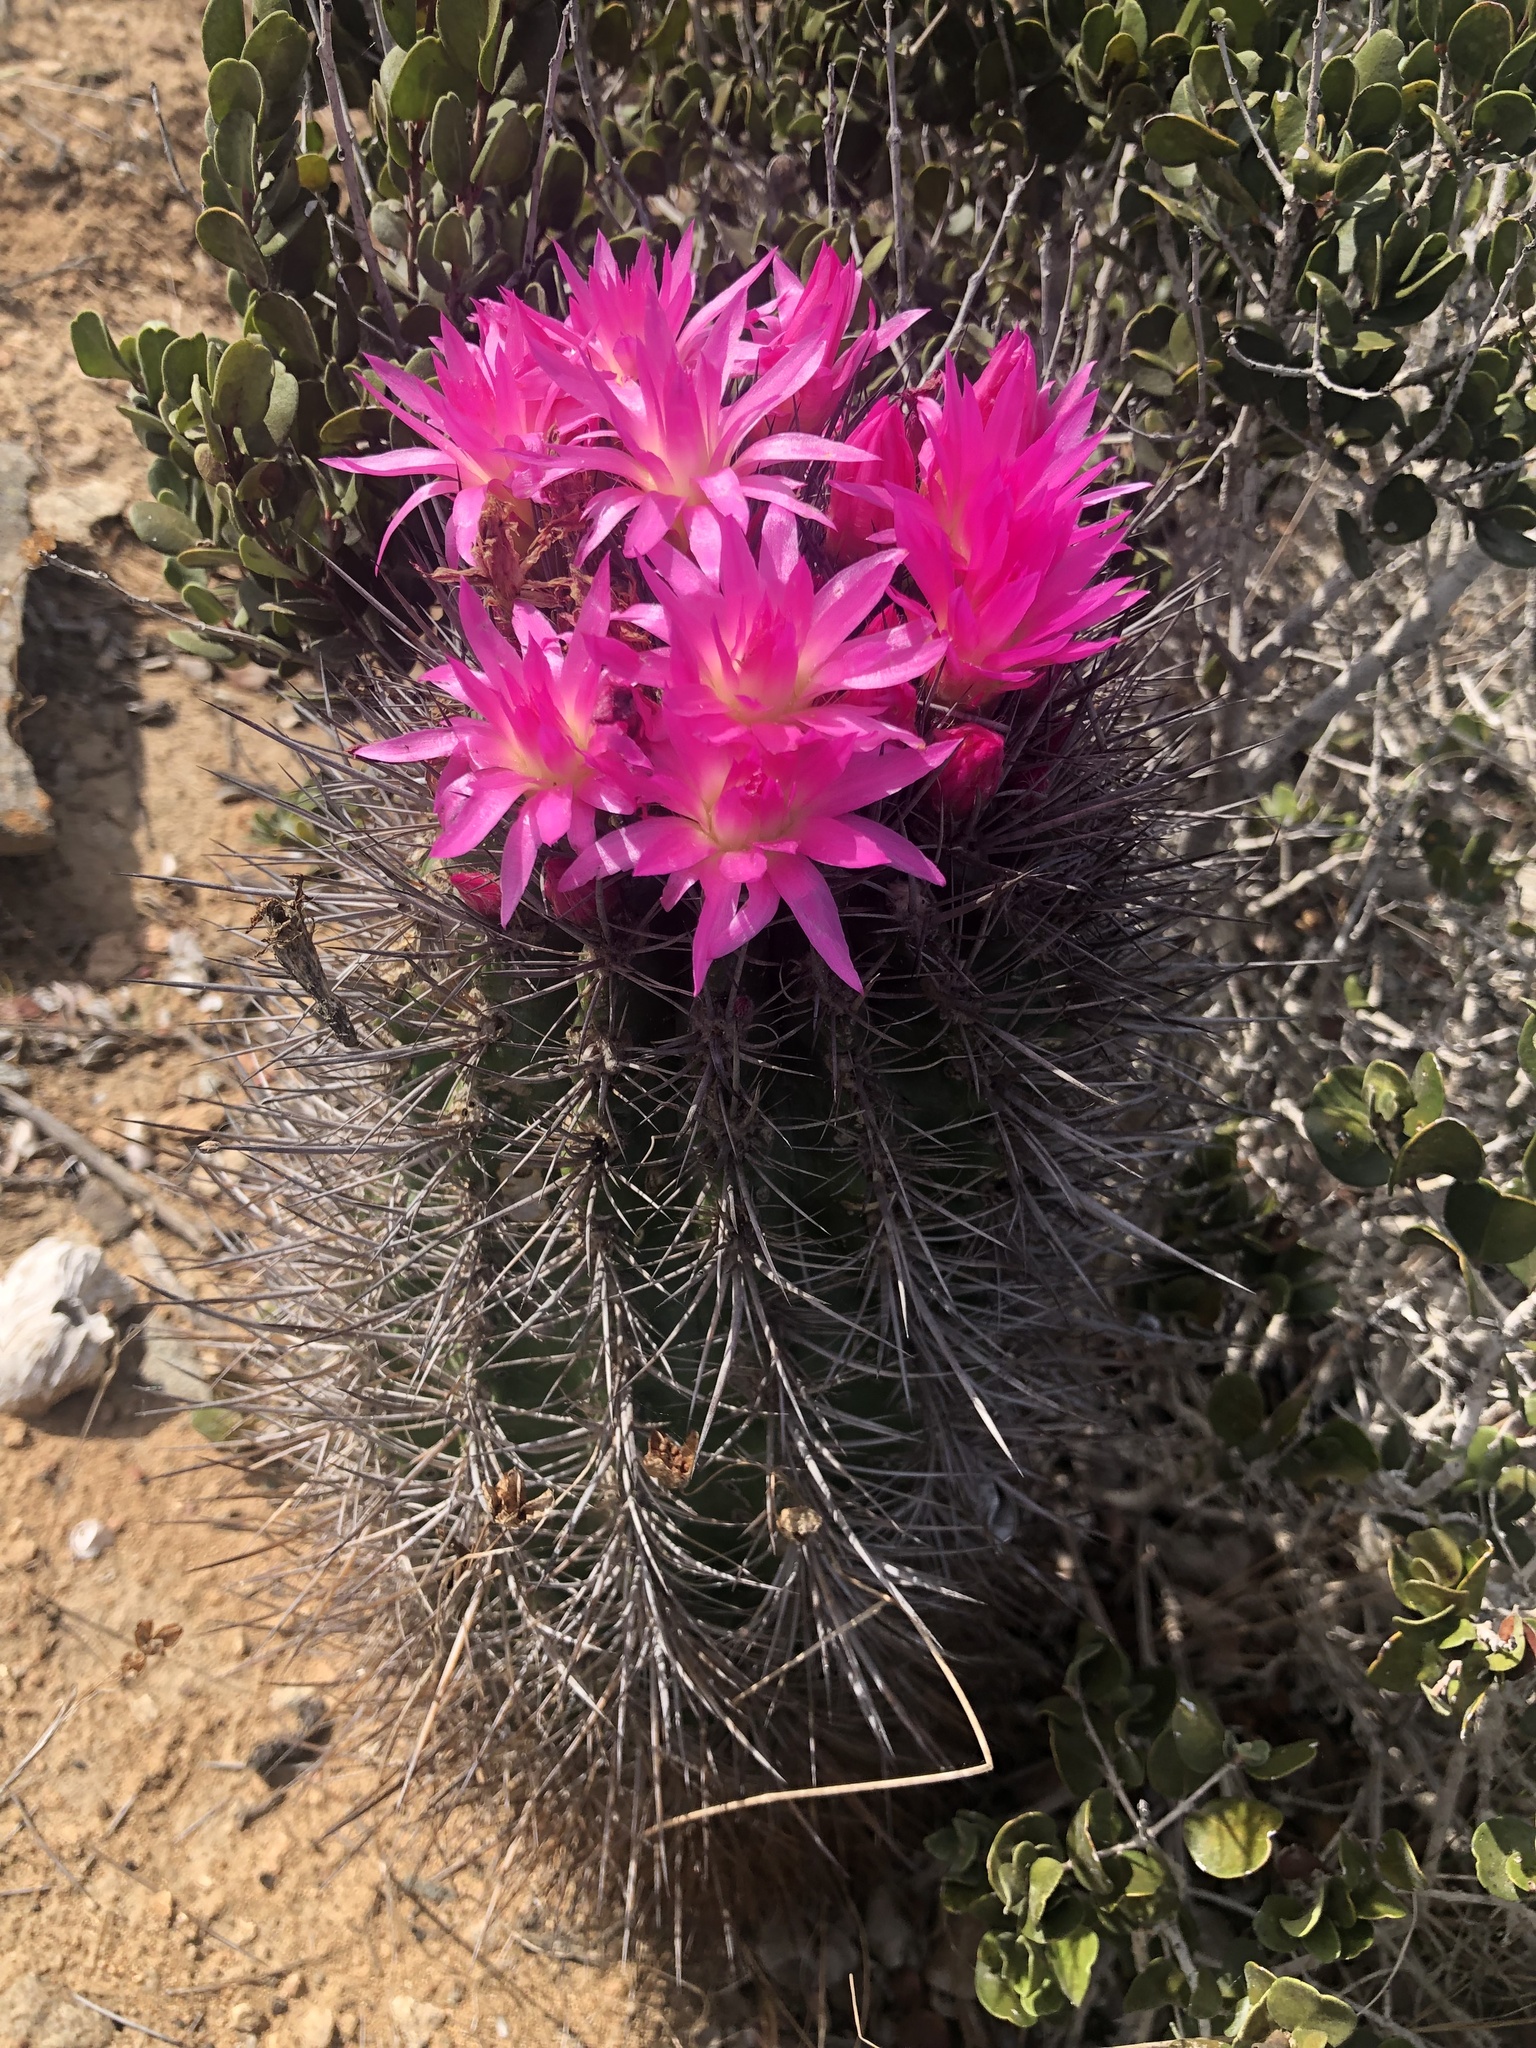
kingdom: Plantae
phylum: Tracheophyta
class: Magnoliopsida
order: Caryophyllales
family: Cactaceae
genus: Eriosyce
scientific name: Eriosyce wagenknechtii
